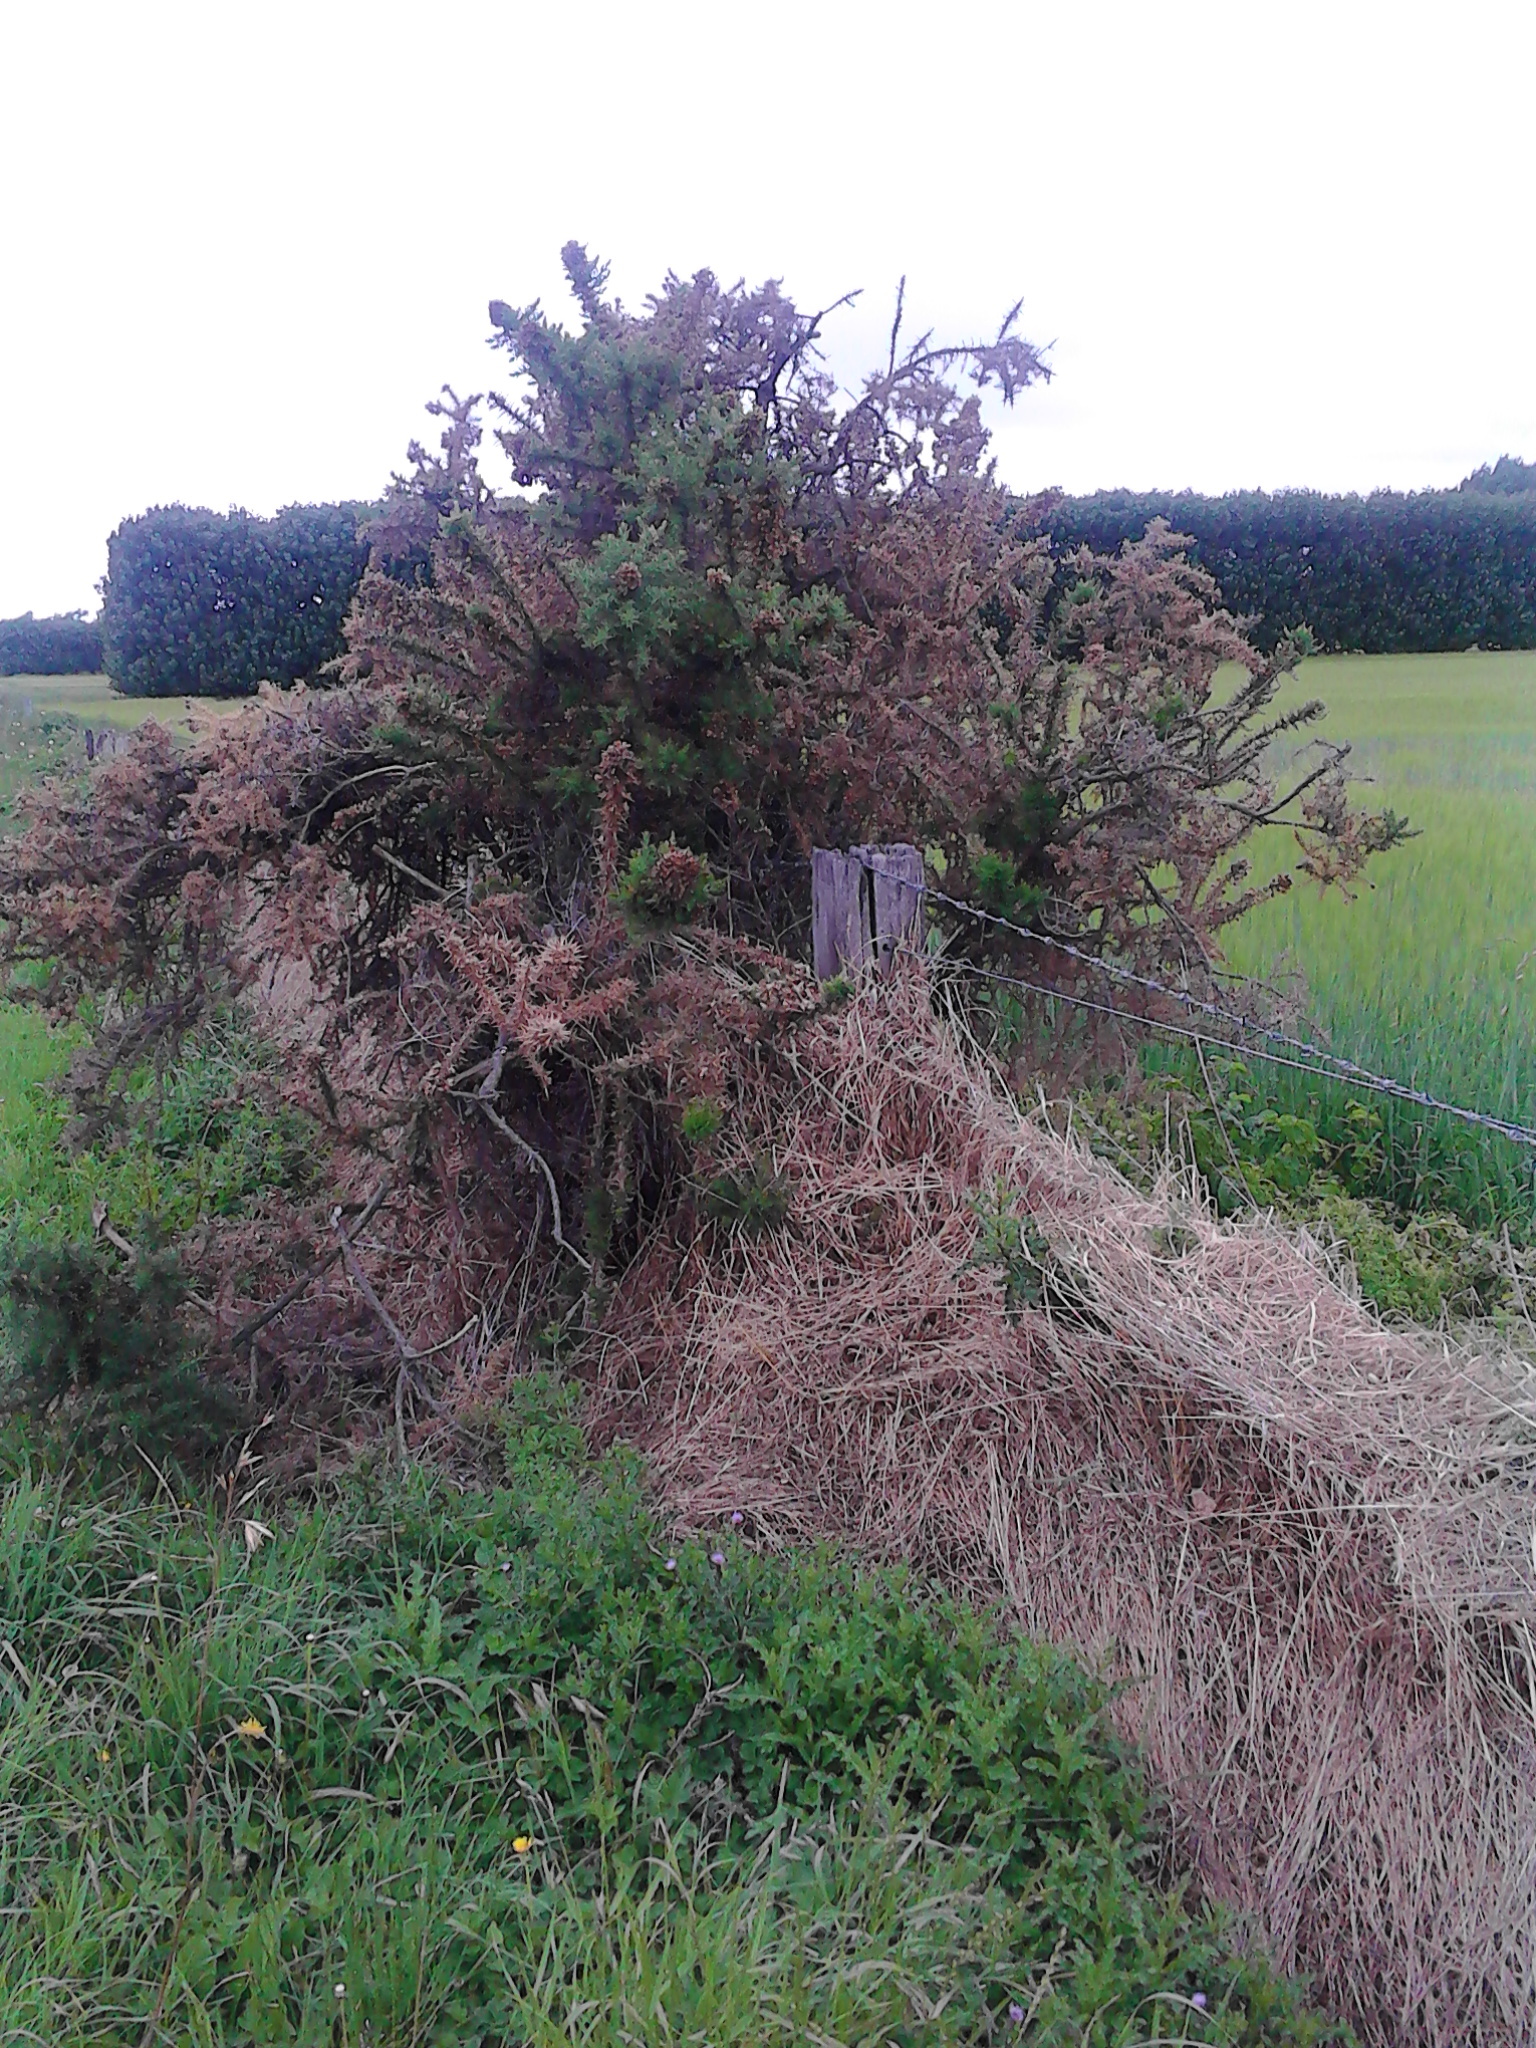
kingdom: Plantae
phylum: Tracheophyta
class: Magnoliopsida
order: Fabales
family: Fabaceae
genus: Ulex
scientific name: Ulex europaeus
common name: Common gorse
